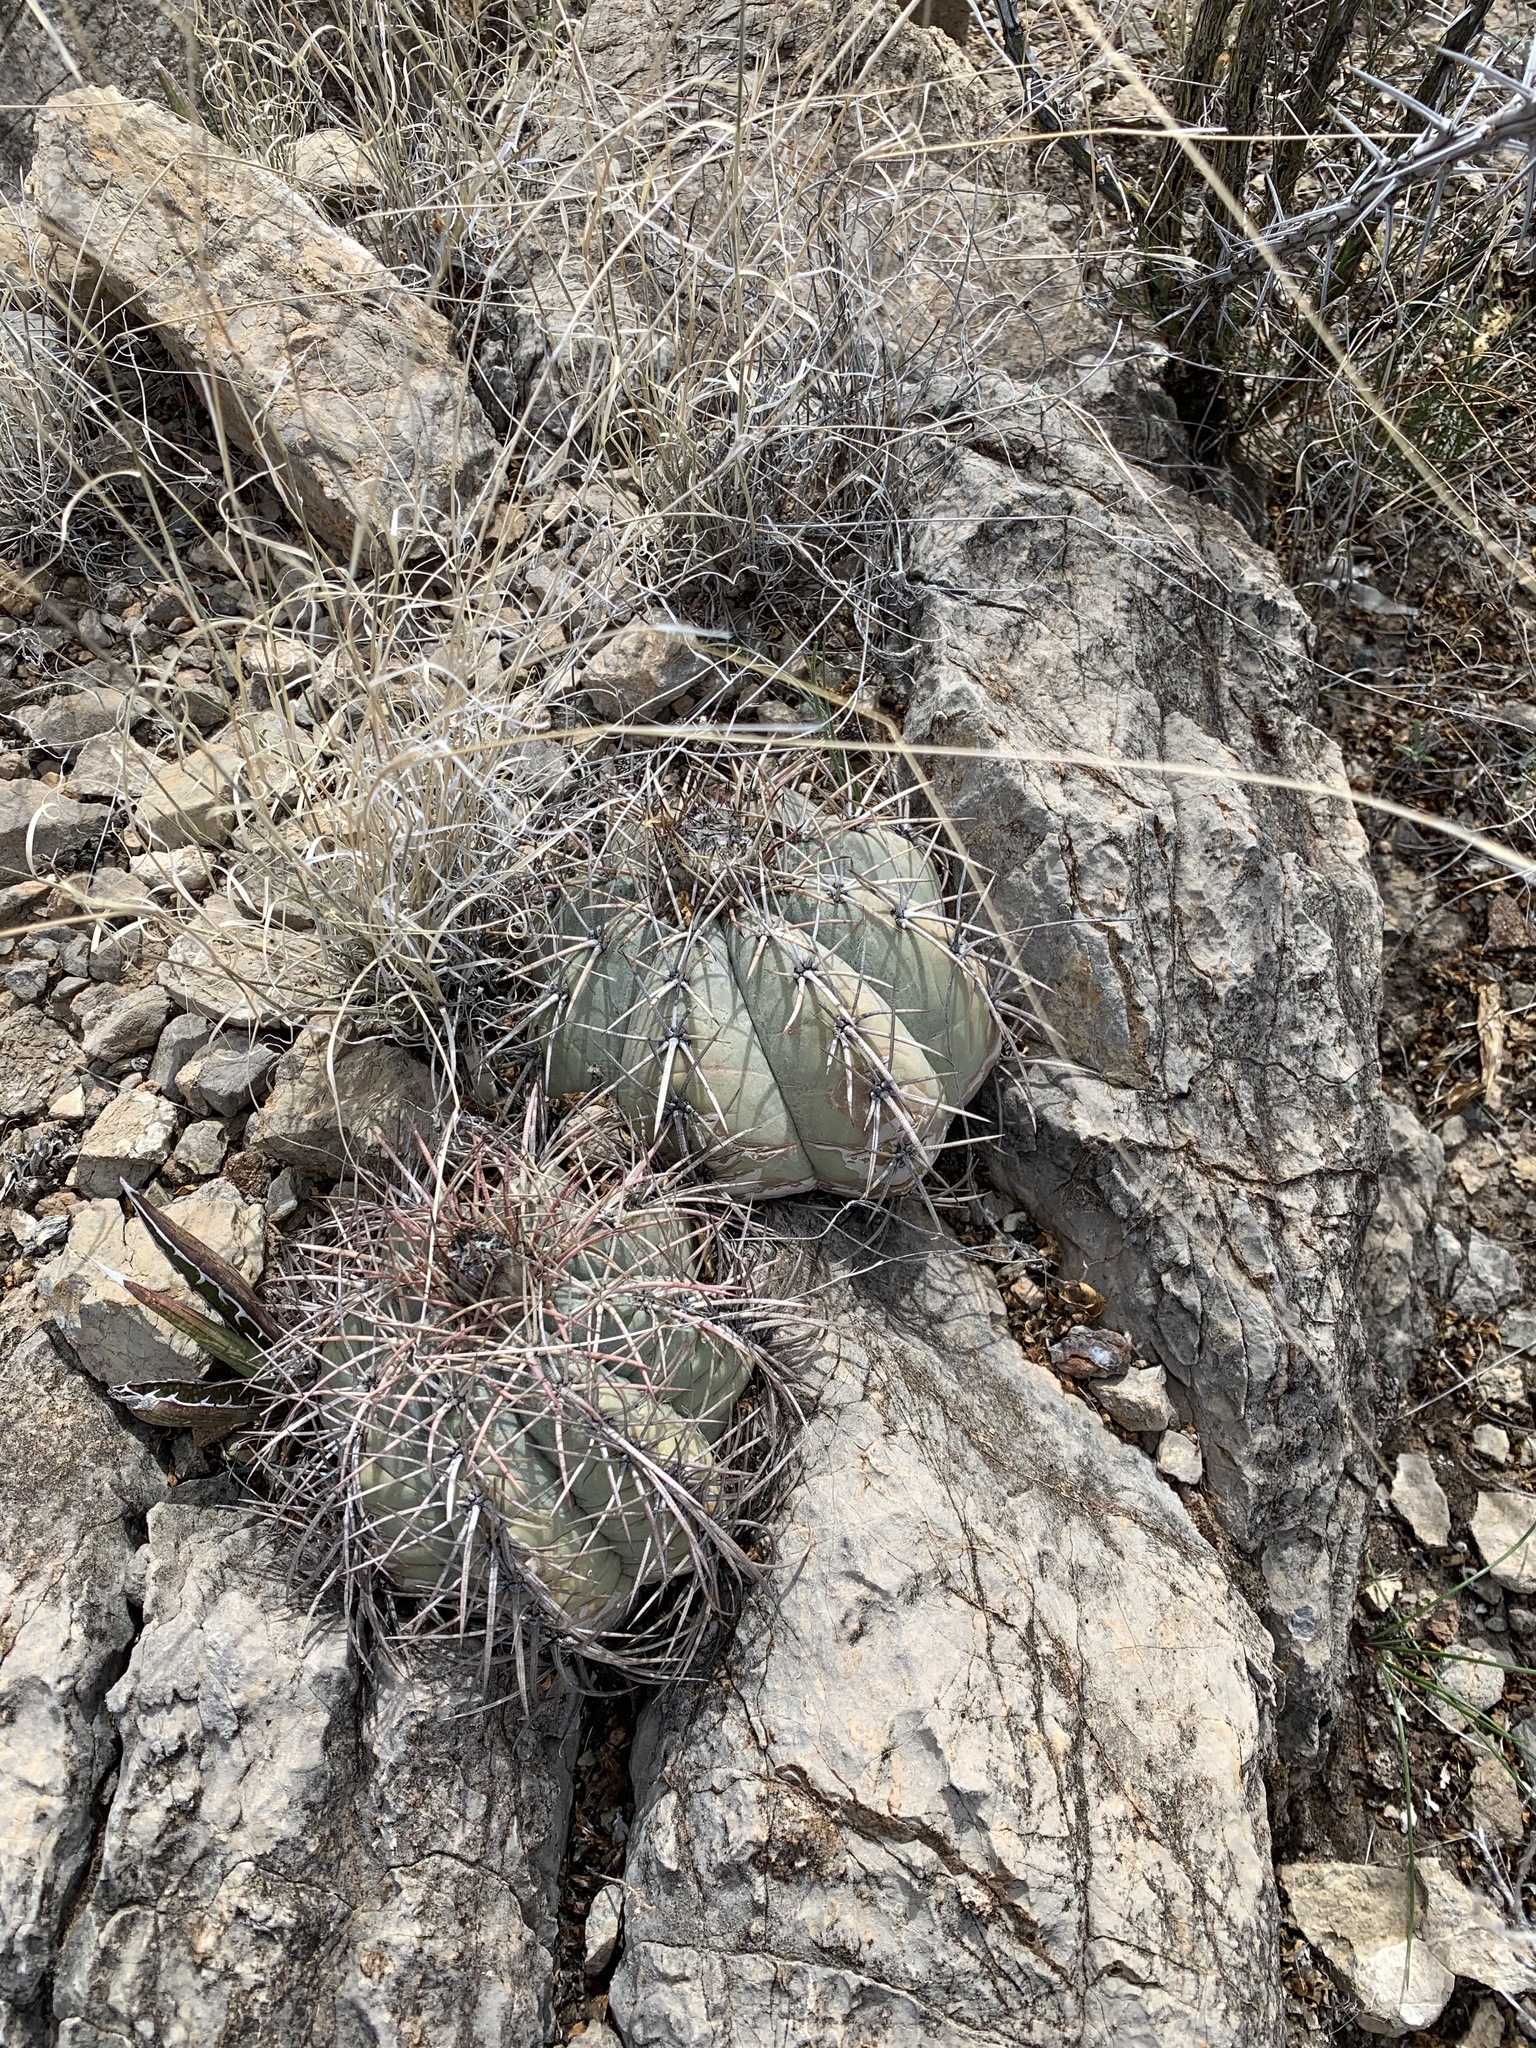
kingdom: Plantae
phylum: Tracheophyta
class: Magnoliopsida
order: Caryophyllales
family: Cactaceae
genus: Echinocactus
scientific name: Echinocactus horizonthalonius
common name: Devilshead
